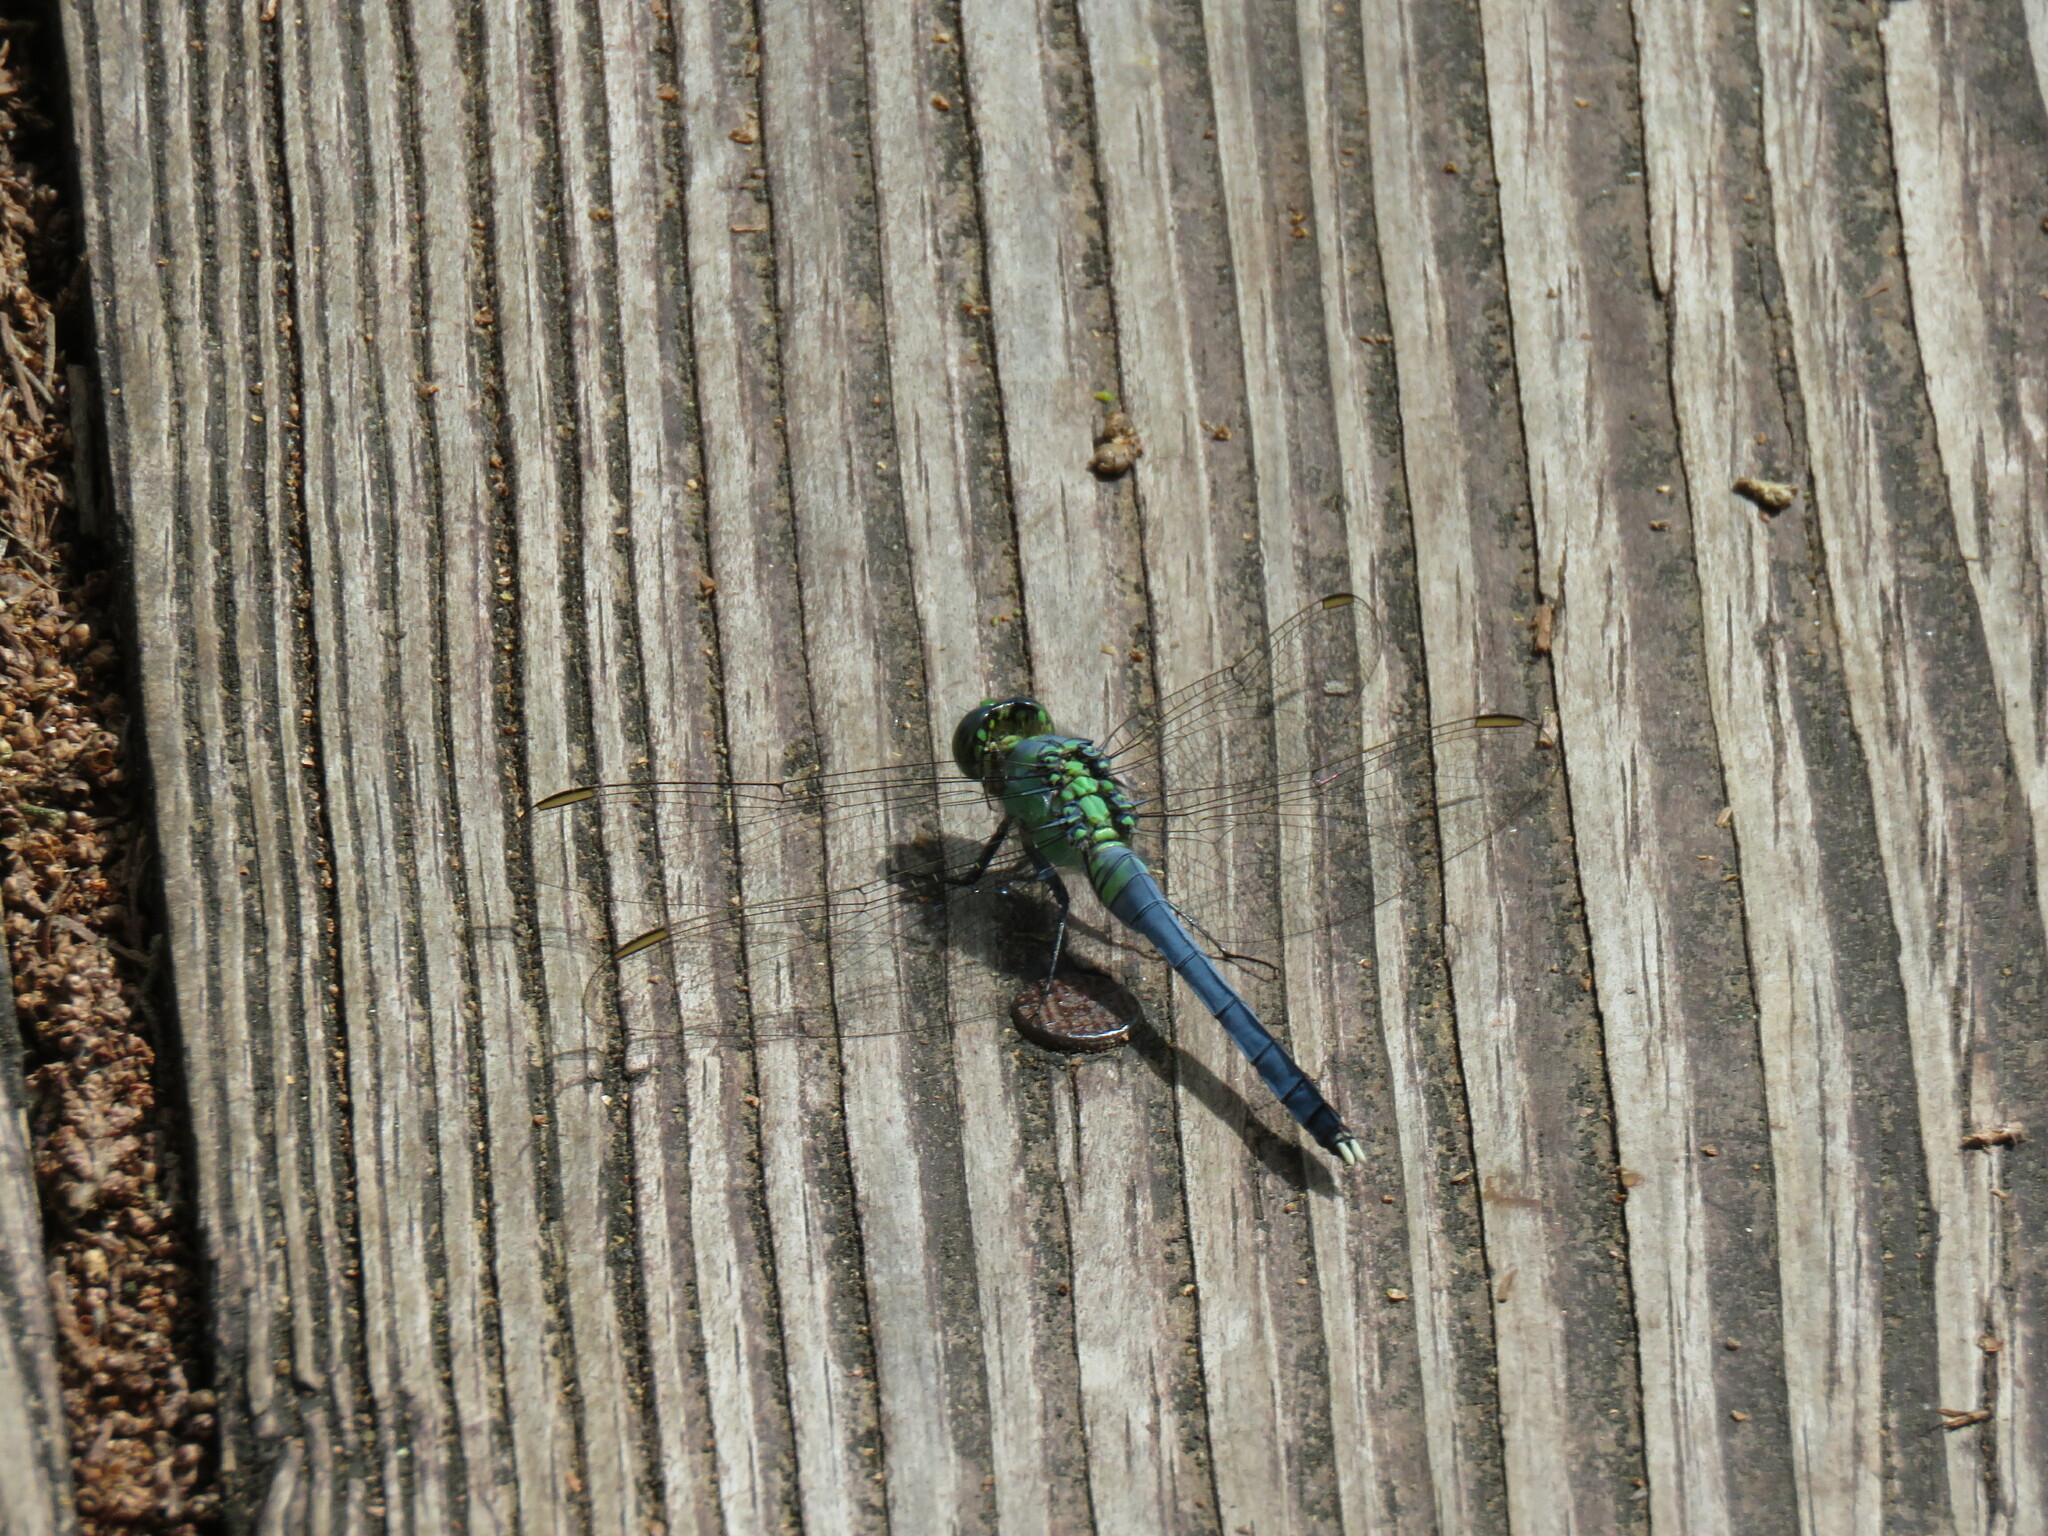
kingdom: Animalia
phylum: Arthropoda
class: Insecta
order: Odonata
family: Libellulidae
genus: Erythemis
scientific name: Erythemis simplicicollis
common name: Eastern pondhawk
